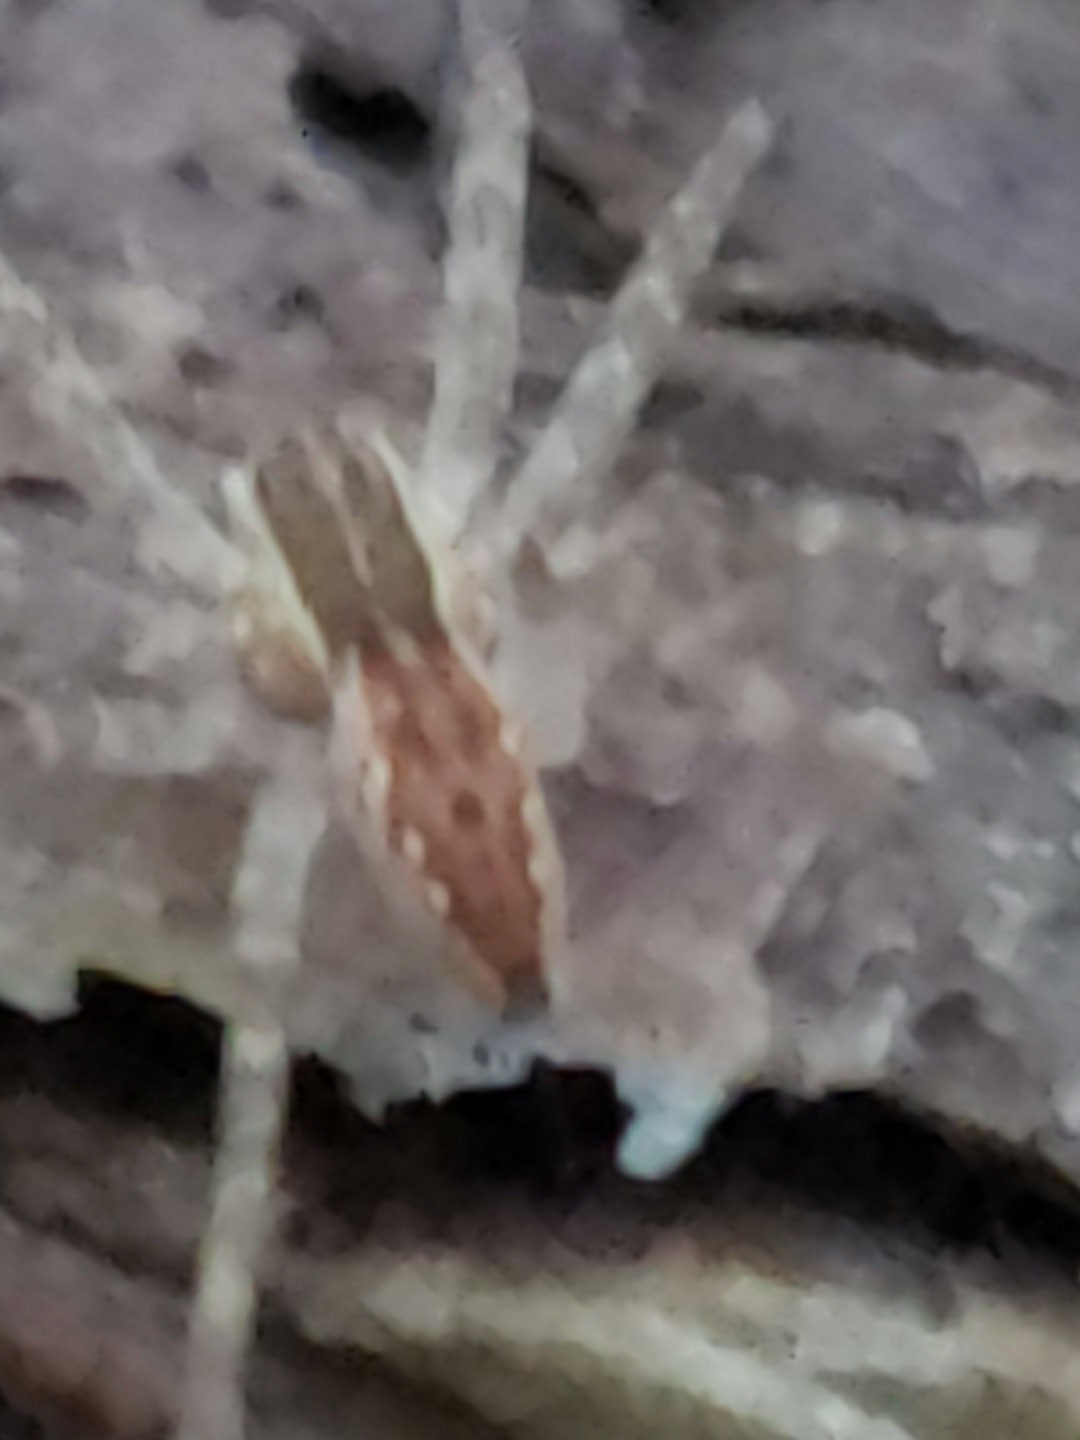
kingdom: Animalia
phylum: Arthropoda
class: Arachnida
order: Araneae
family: Pisauridae
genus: Pisaurina
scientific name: Pisaurina mira
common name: American nursery web spider
